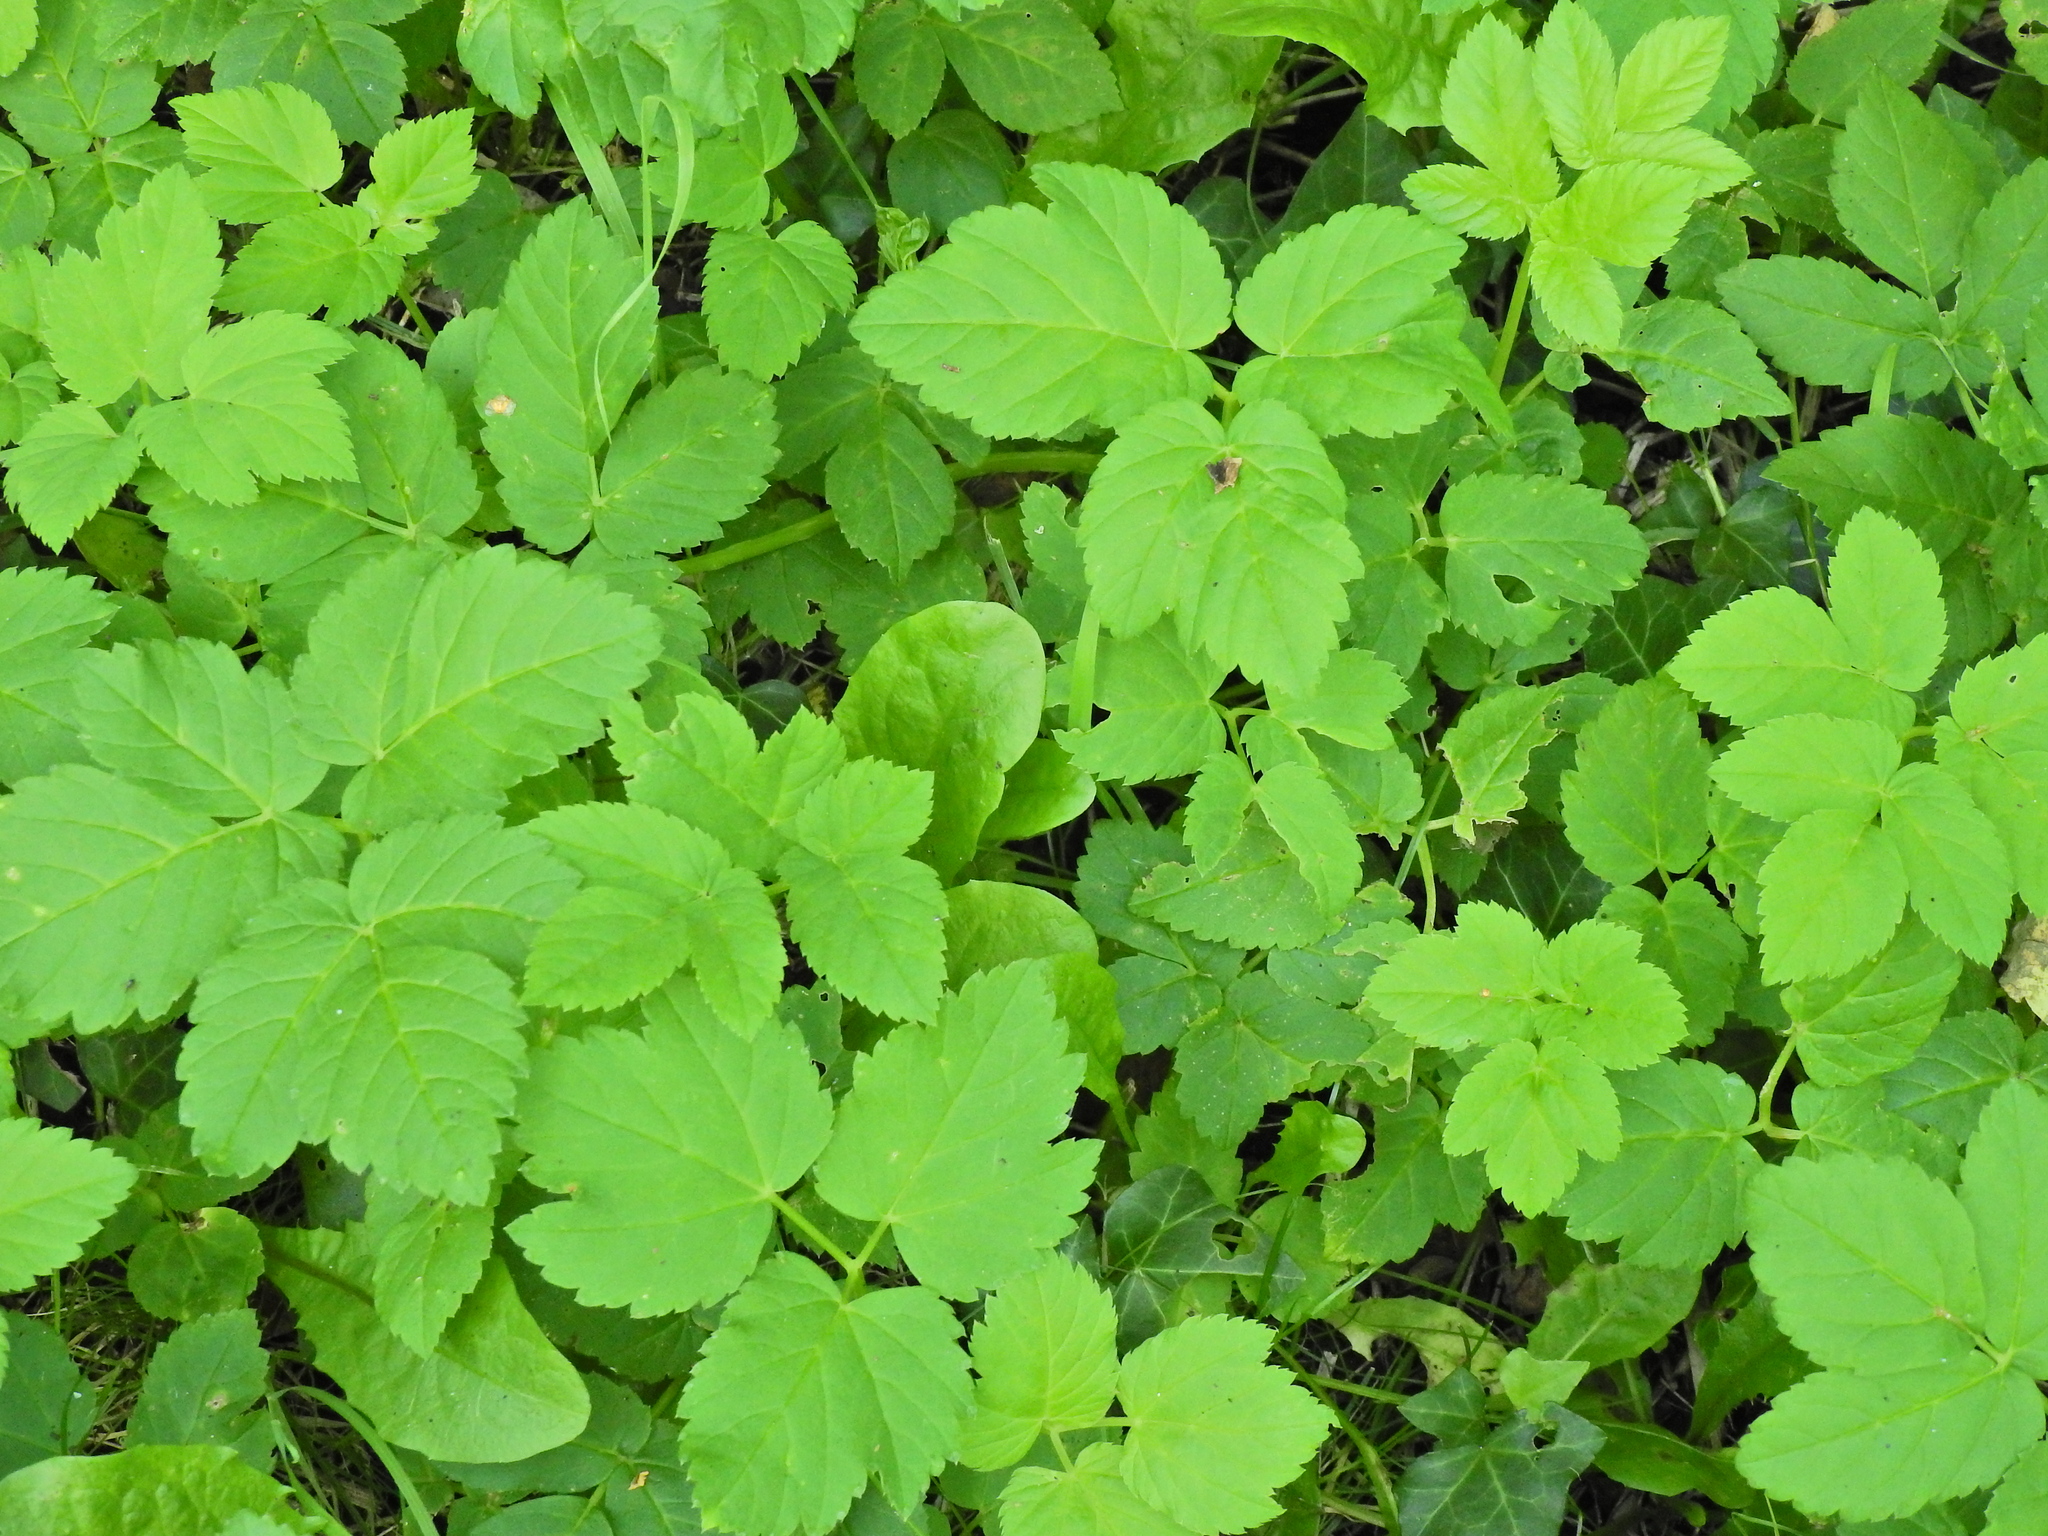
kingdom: Plantae
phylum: Tracheophyta
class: Magnoliopsida
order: Apiales
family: Apiaceae
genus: Aegopodium
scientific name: Aegopodium podagraria
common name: Ground-elder
